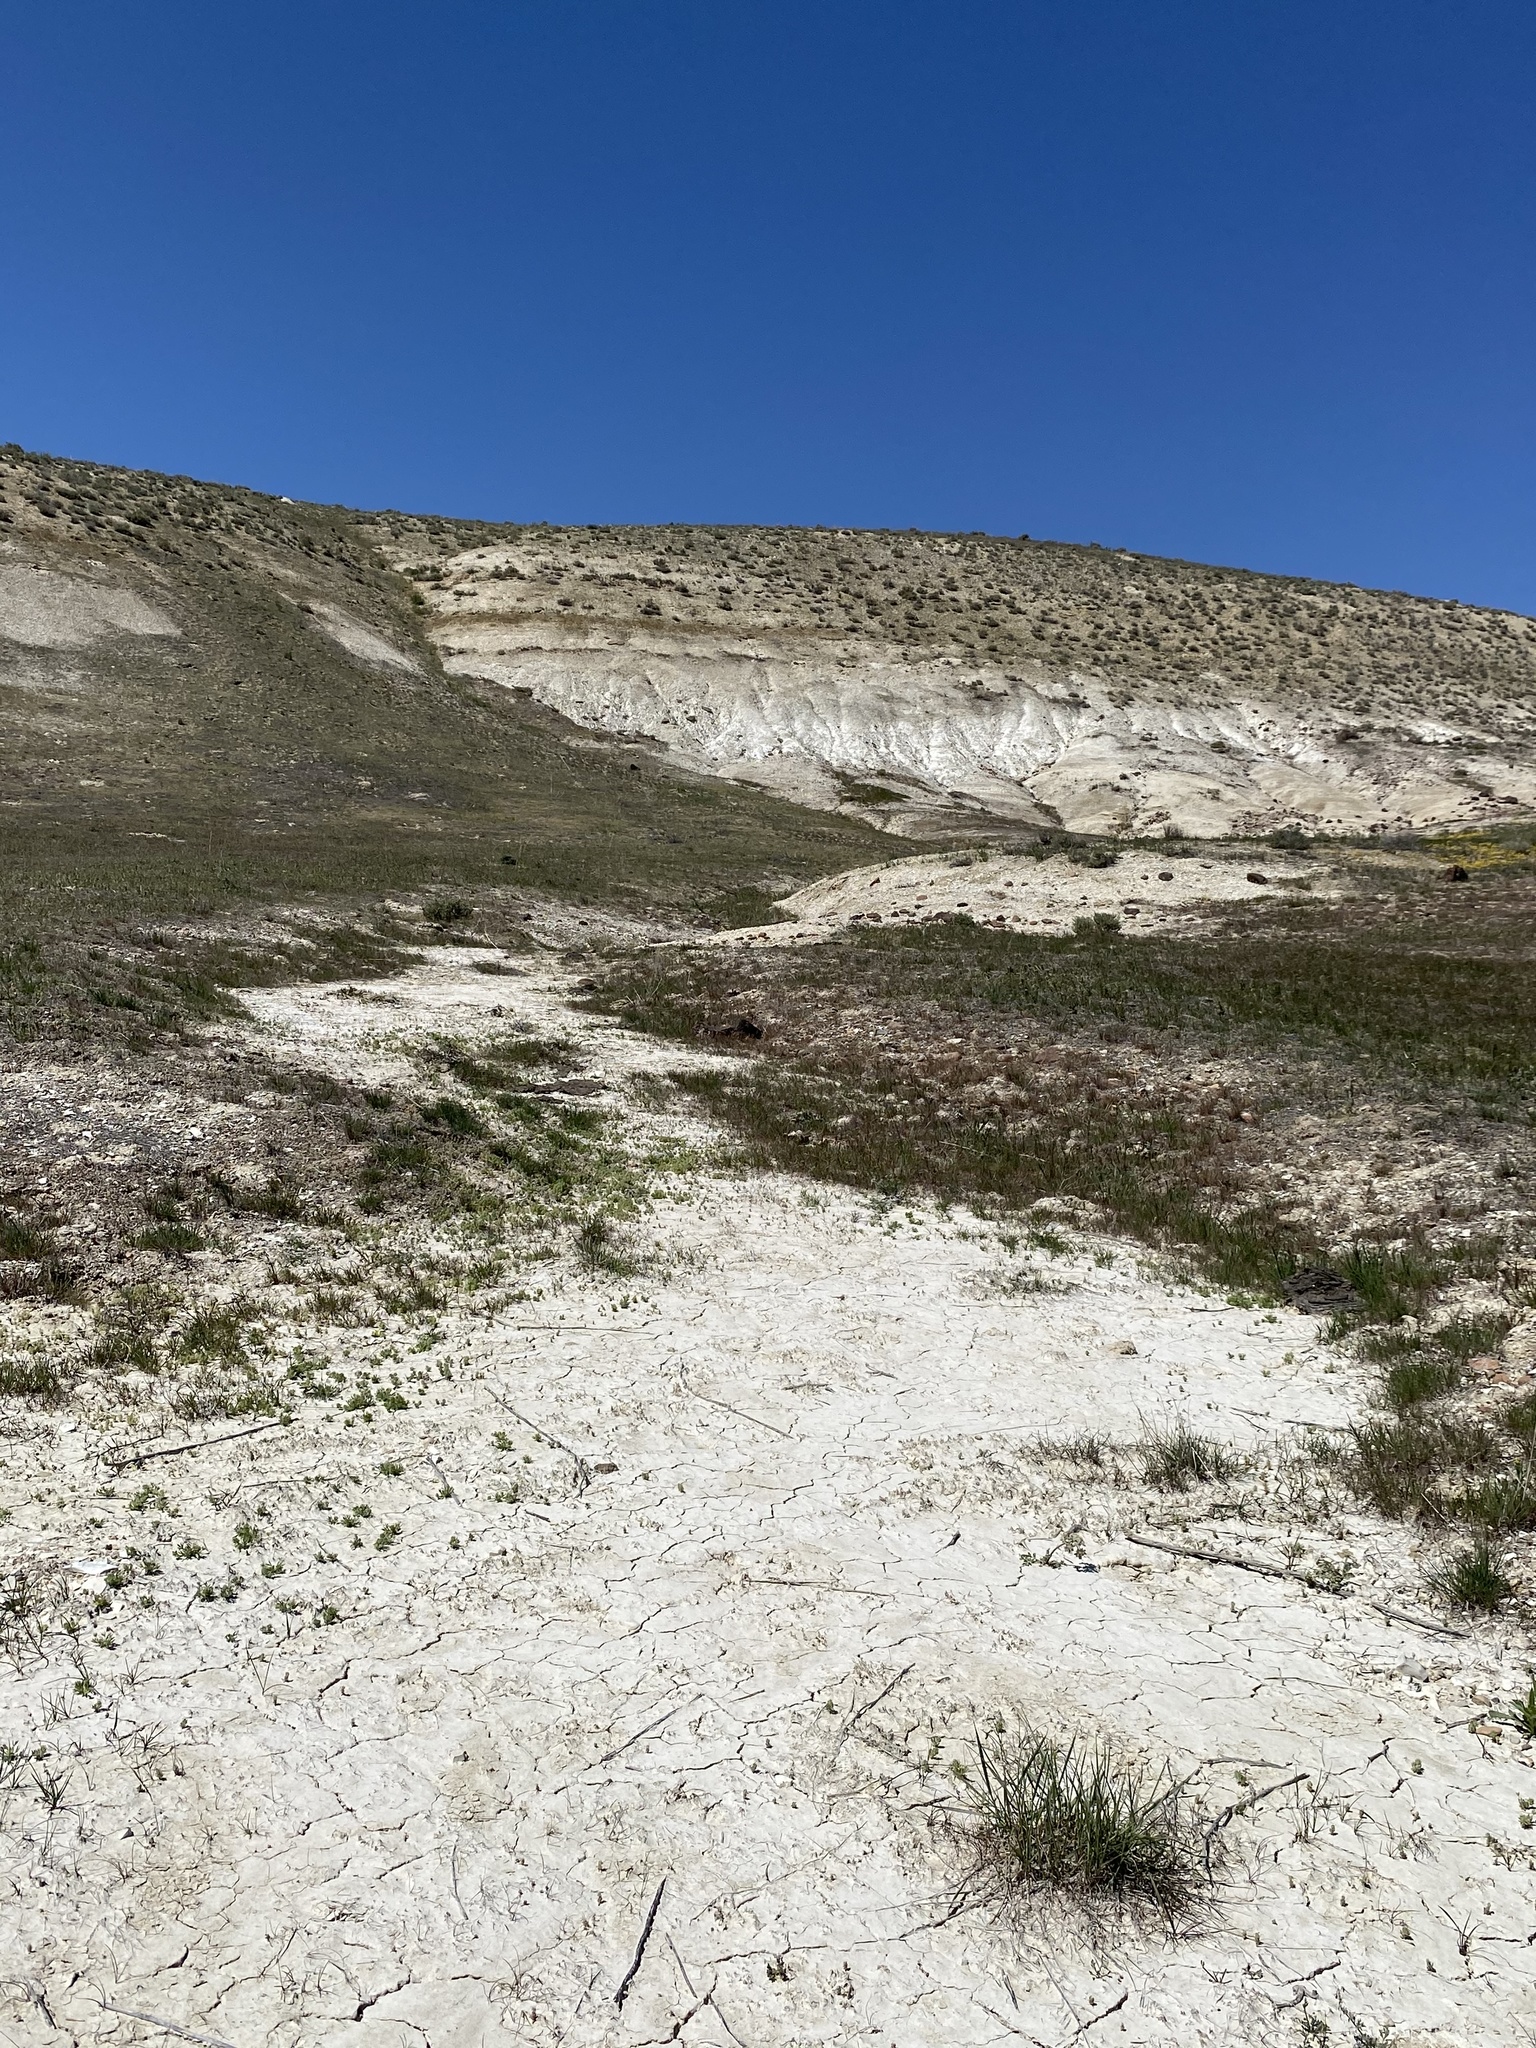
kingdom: Plantae
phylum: Tracheophyta
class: Magnoliopsida
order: Apiales
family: Apiaceae
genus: Lomatium
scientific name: Lomatium bentonitum
